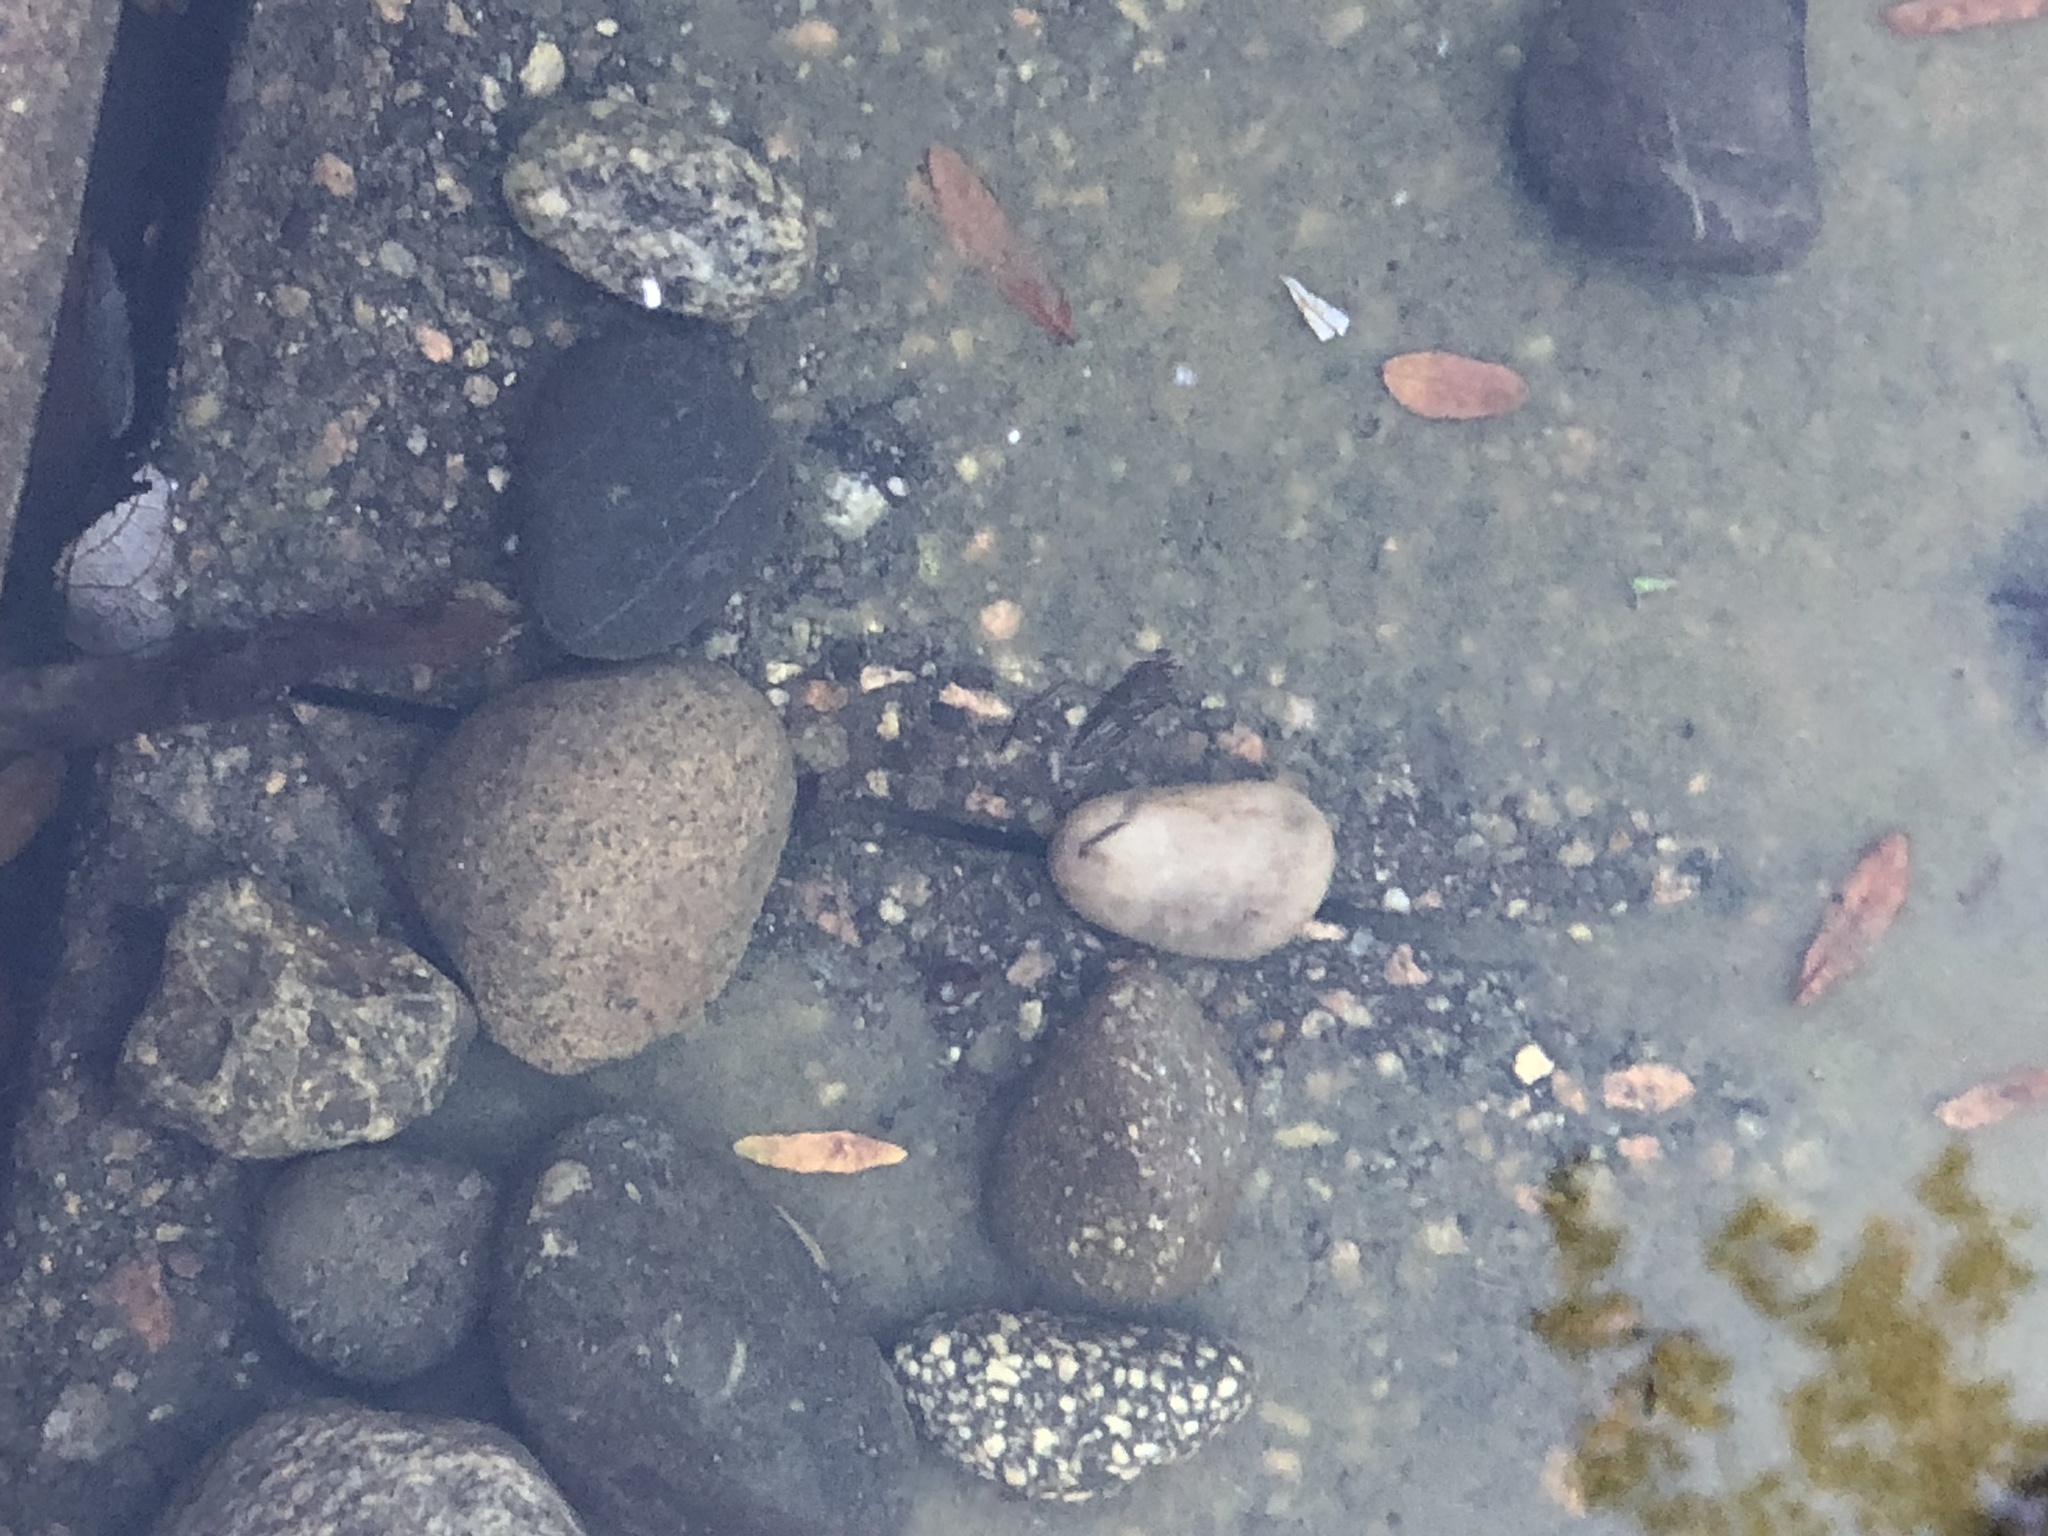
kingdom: Animalia
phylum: Arthropoda
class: Insecta
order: Hemiptera
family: Notonectidae
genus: Notonecta
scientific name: Notonecta
